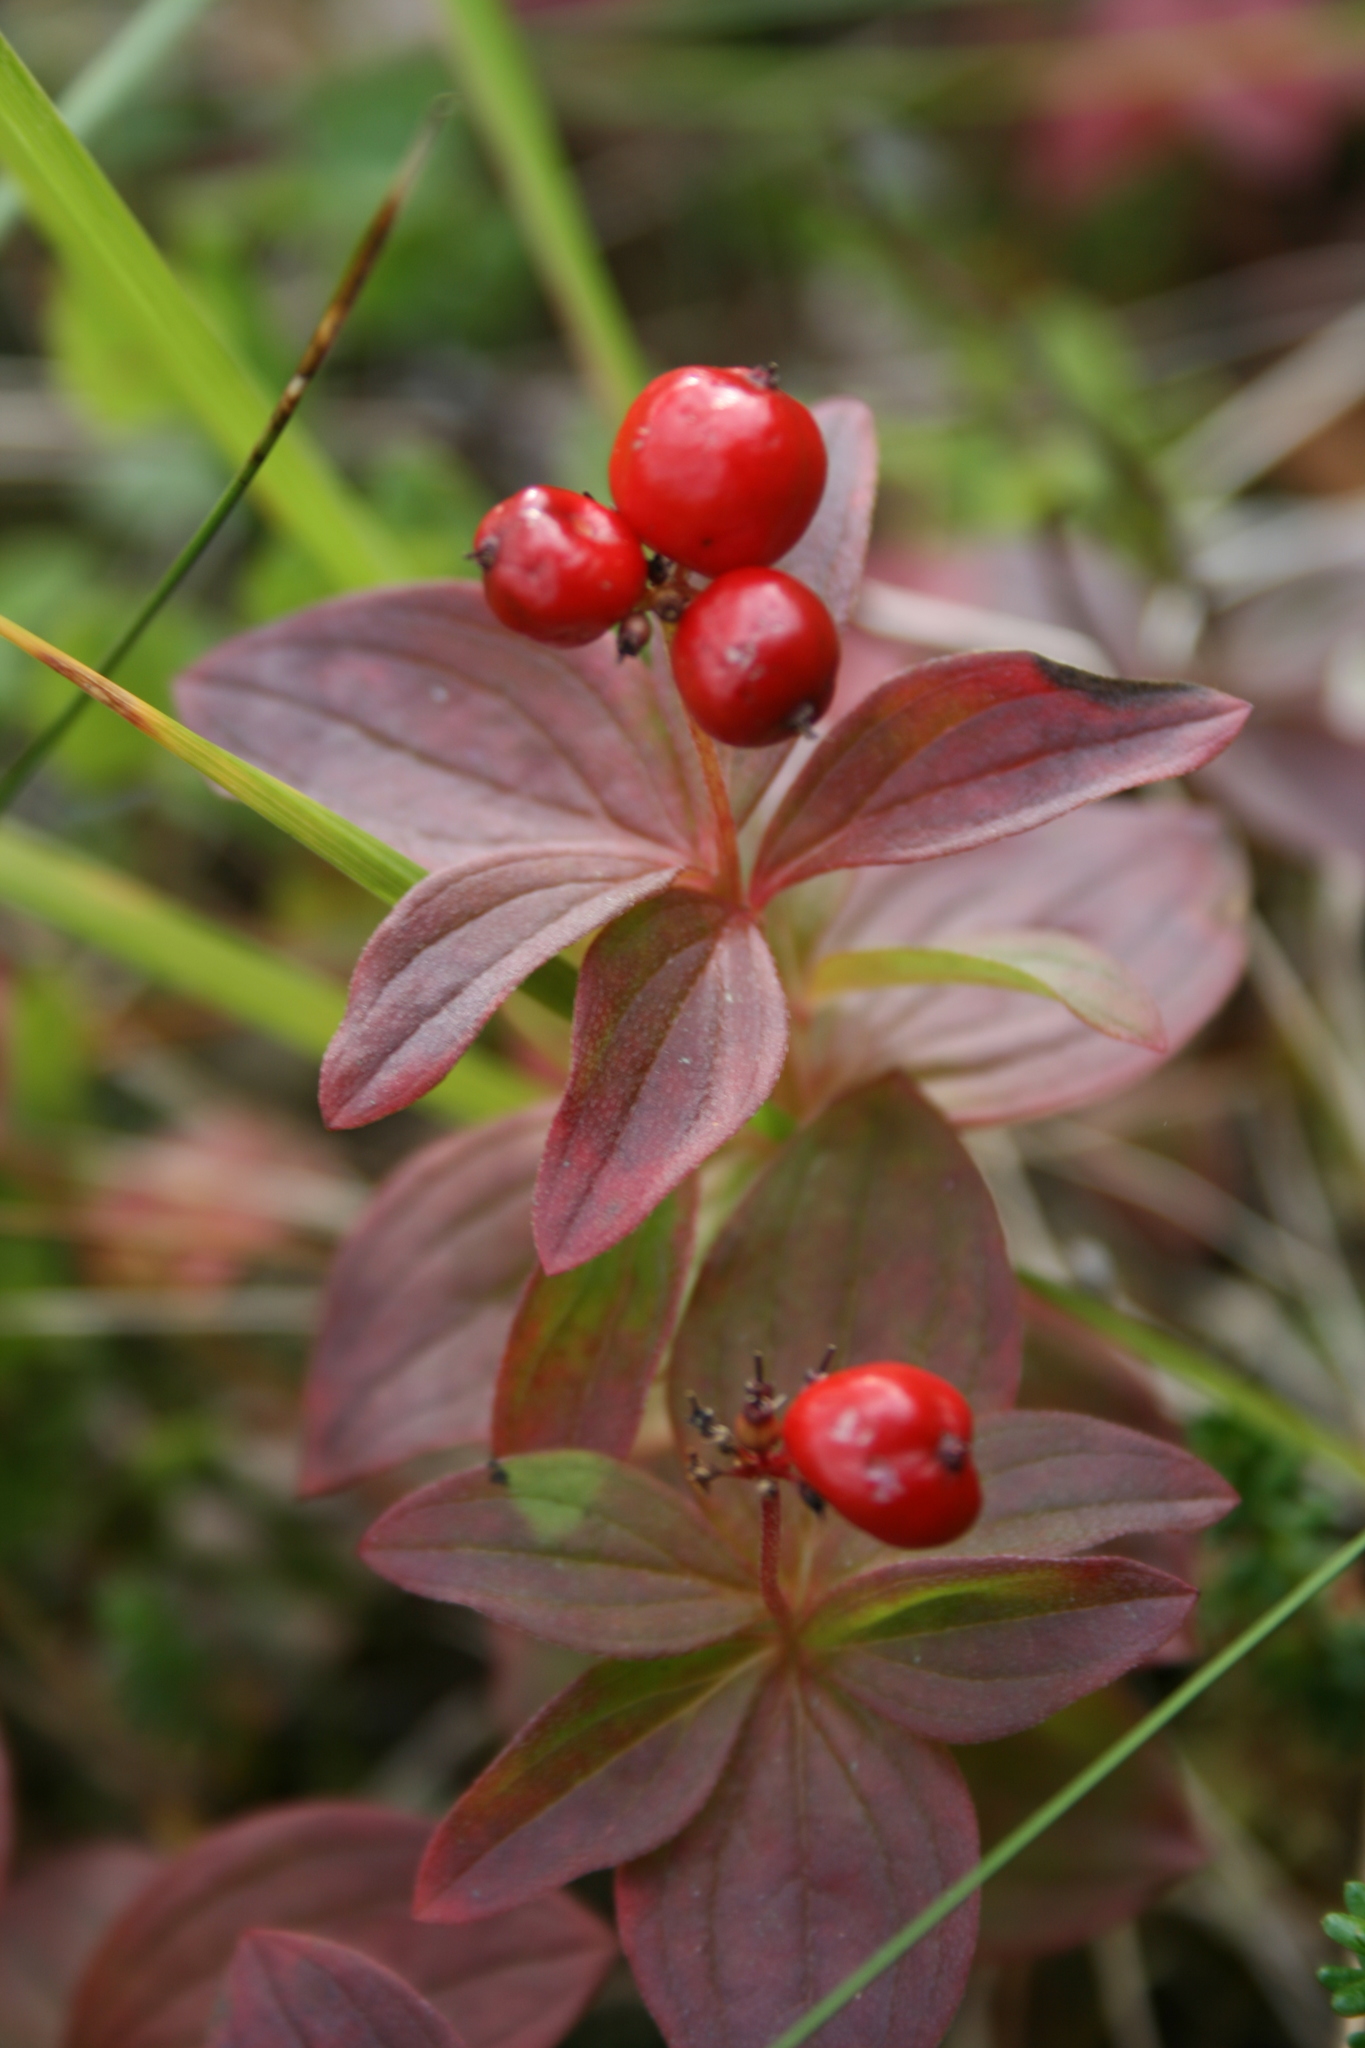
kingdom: Plantae
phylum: Tracheophyta
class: Magnoliopsida
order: Cornales
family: Cornaceae
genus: Cornus
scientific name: Cornus suecica
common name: Dwarf cornel
